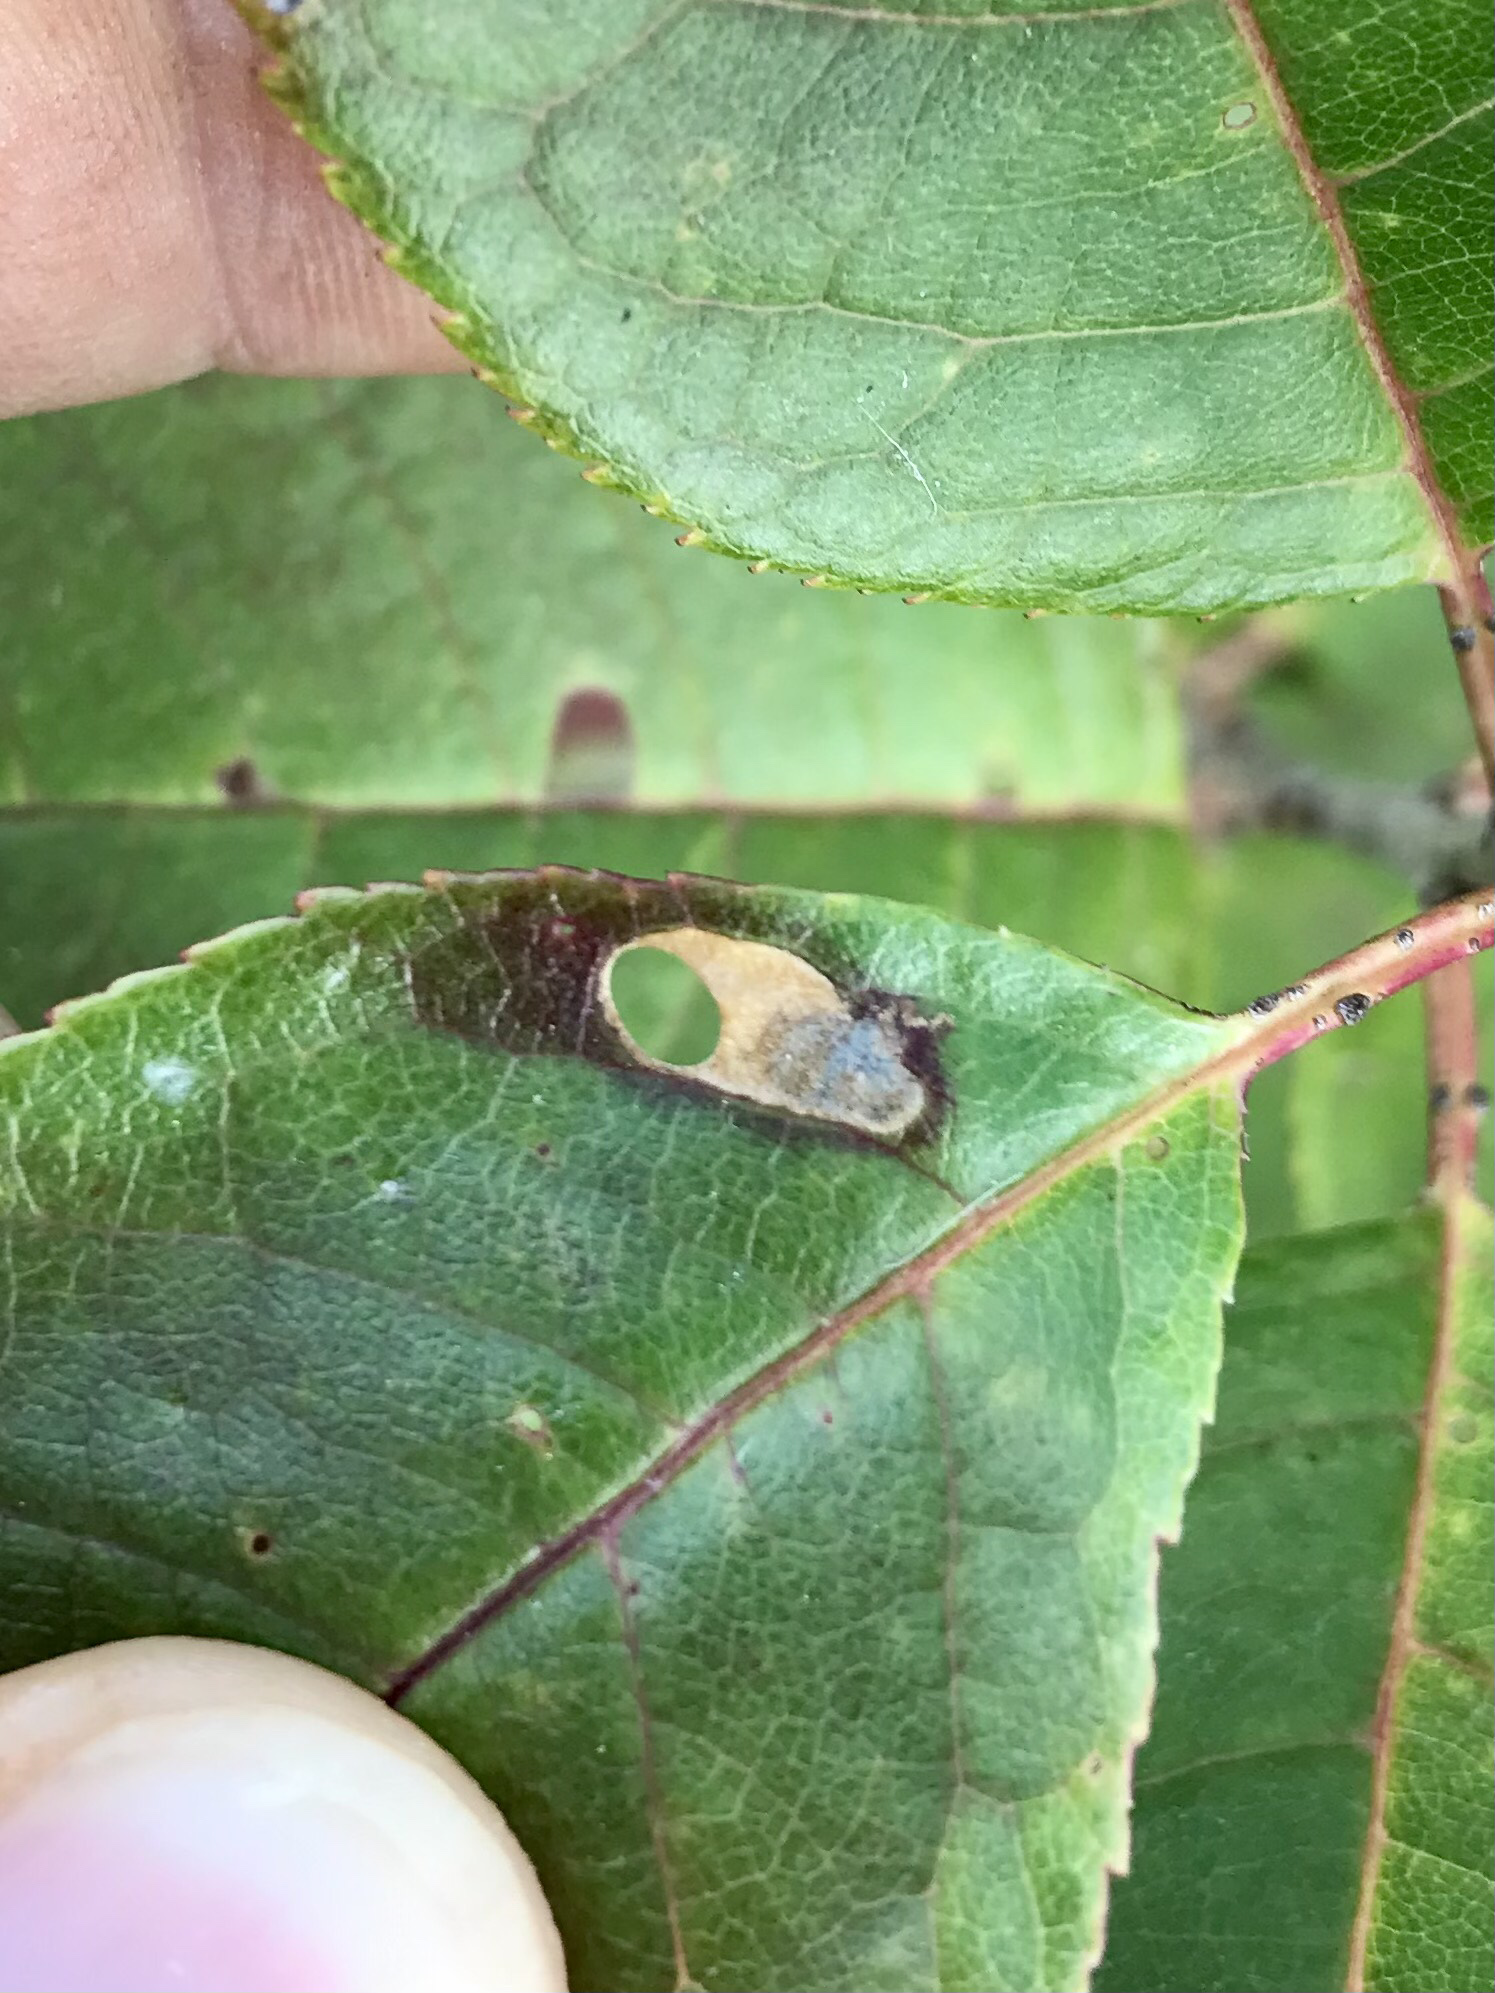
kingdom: Animalia
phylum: Arthropoda
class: Insecta
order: Lepidoptera
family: Heliozelidae
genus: Coptodisca
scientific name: Coptodisca splendoriferella
